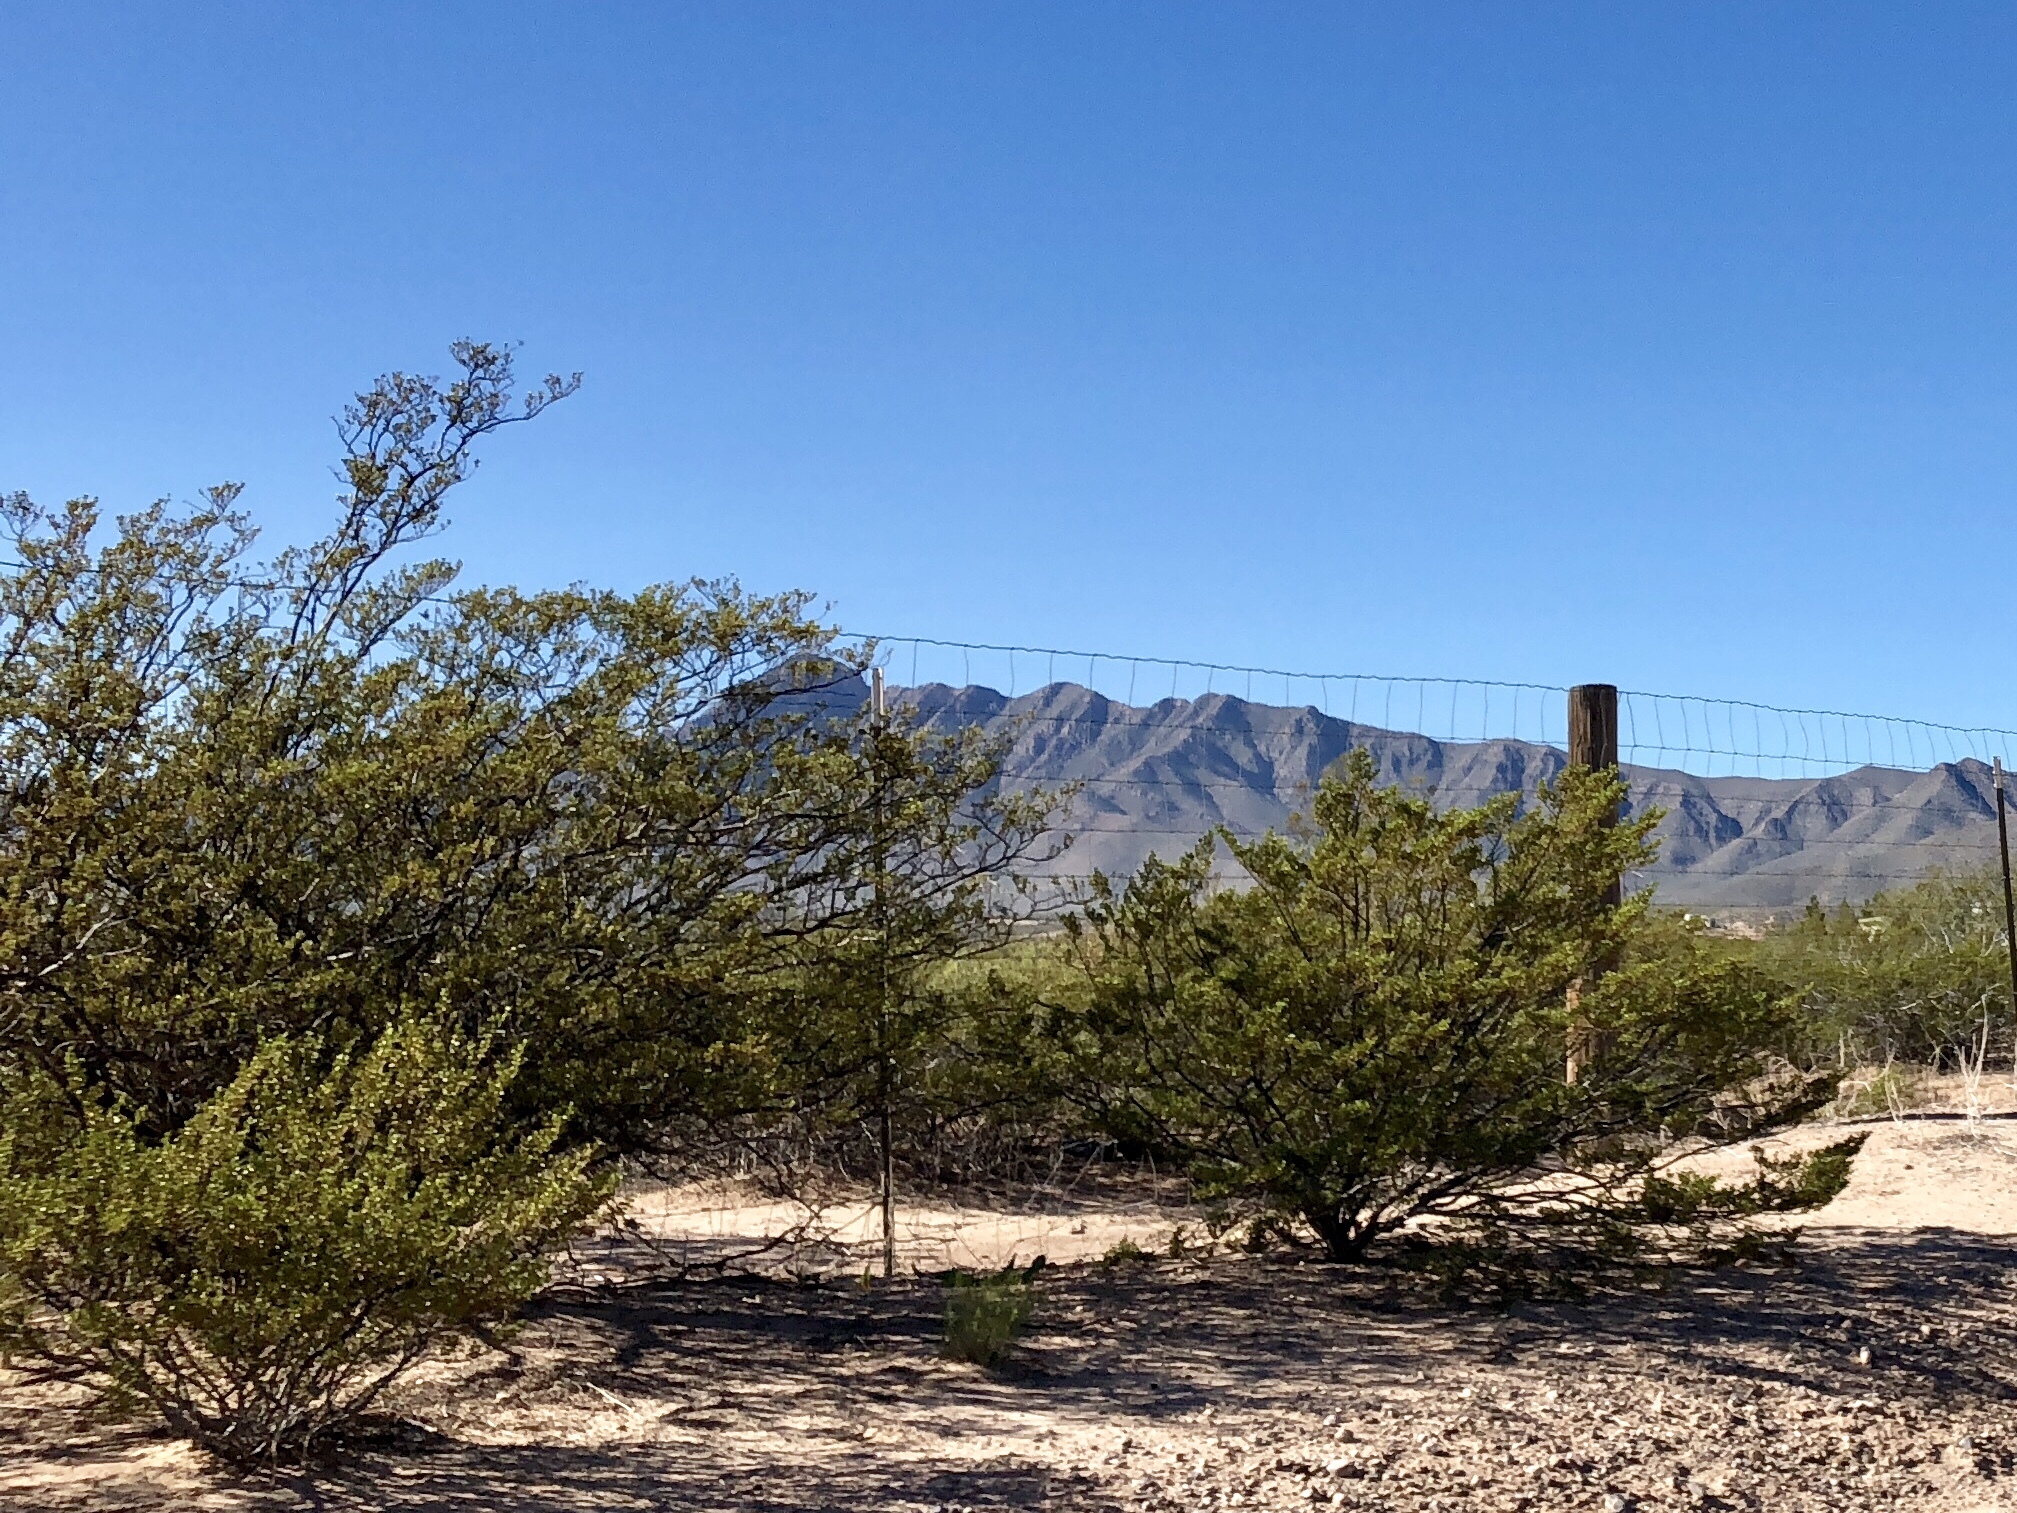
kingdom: Plantae
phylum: Tracheophyta
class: Magnoliopsida
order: Zygophyllales
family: Zygophyllaceae
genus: Larrea
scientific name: Larrea tridentata
